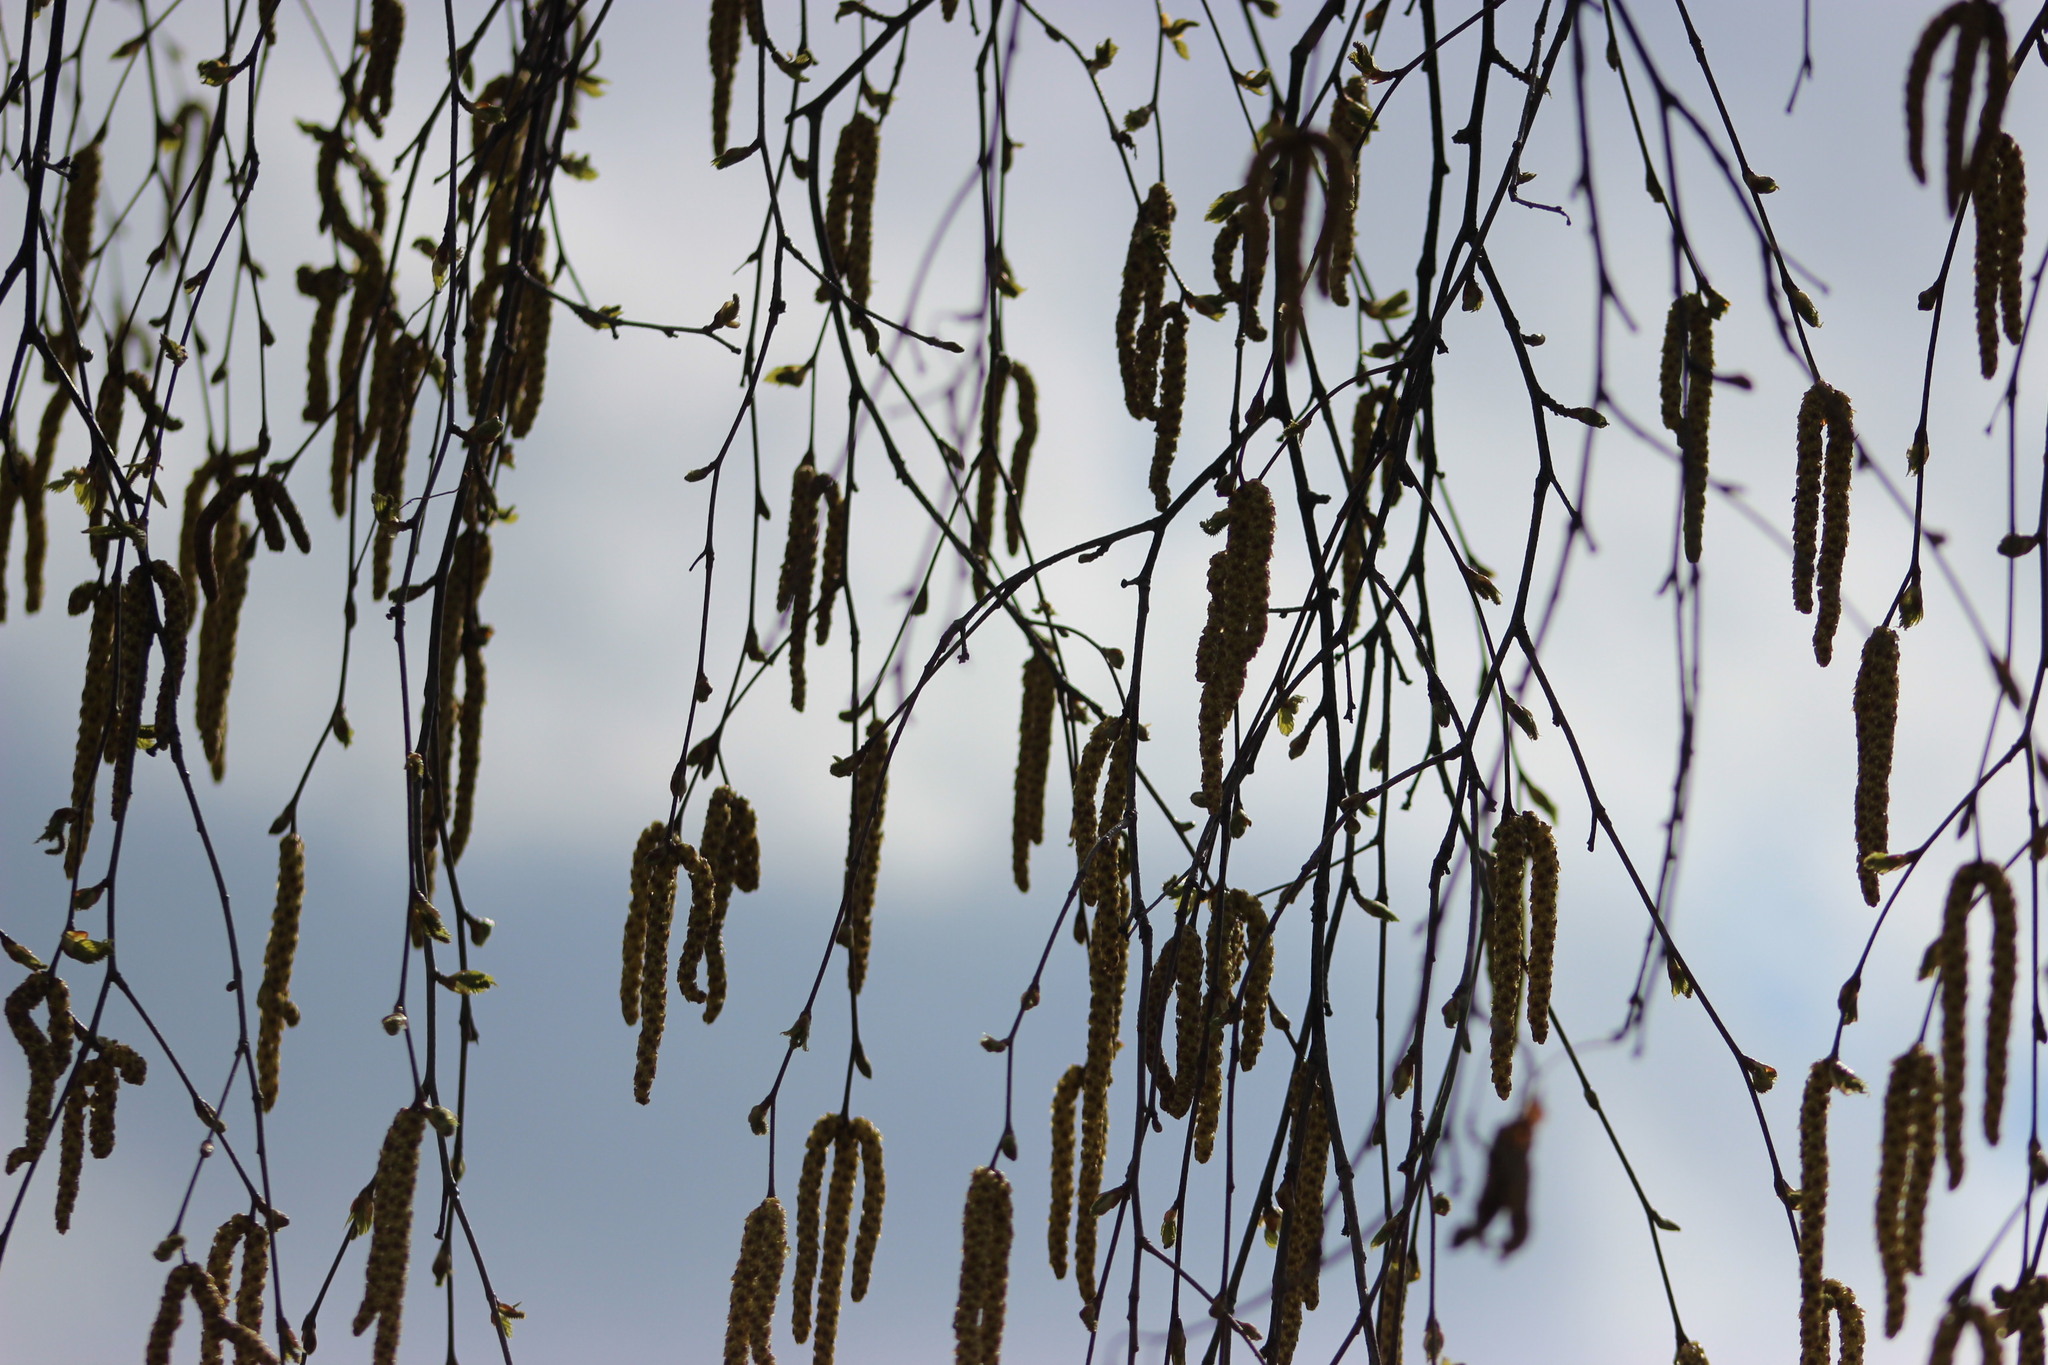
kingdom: Plantae
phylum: Tracheophyta
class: Magnoliopsida
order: Fagales
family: Betulaceae
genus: Betula
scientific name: Betula pendula
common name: Silver birch
